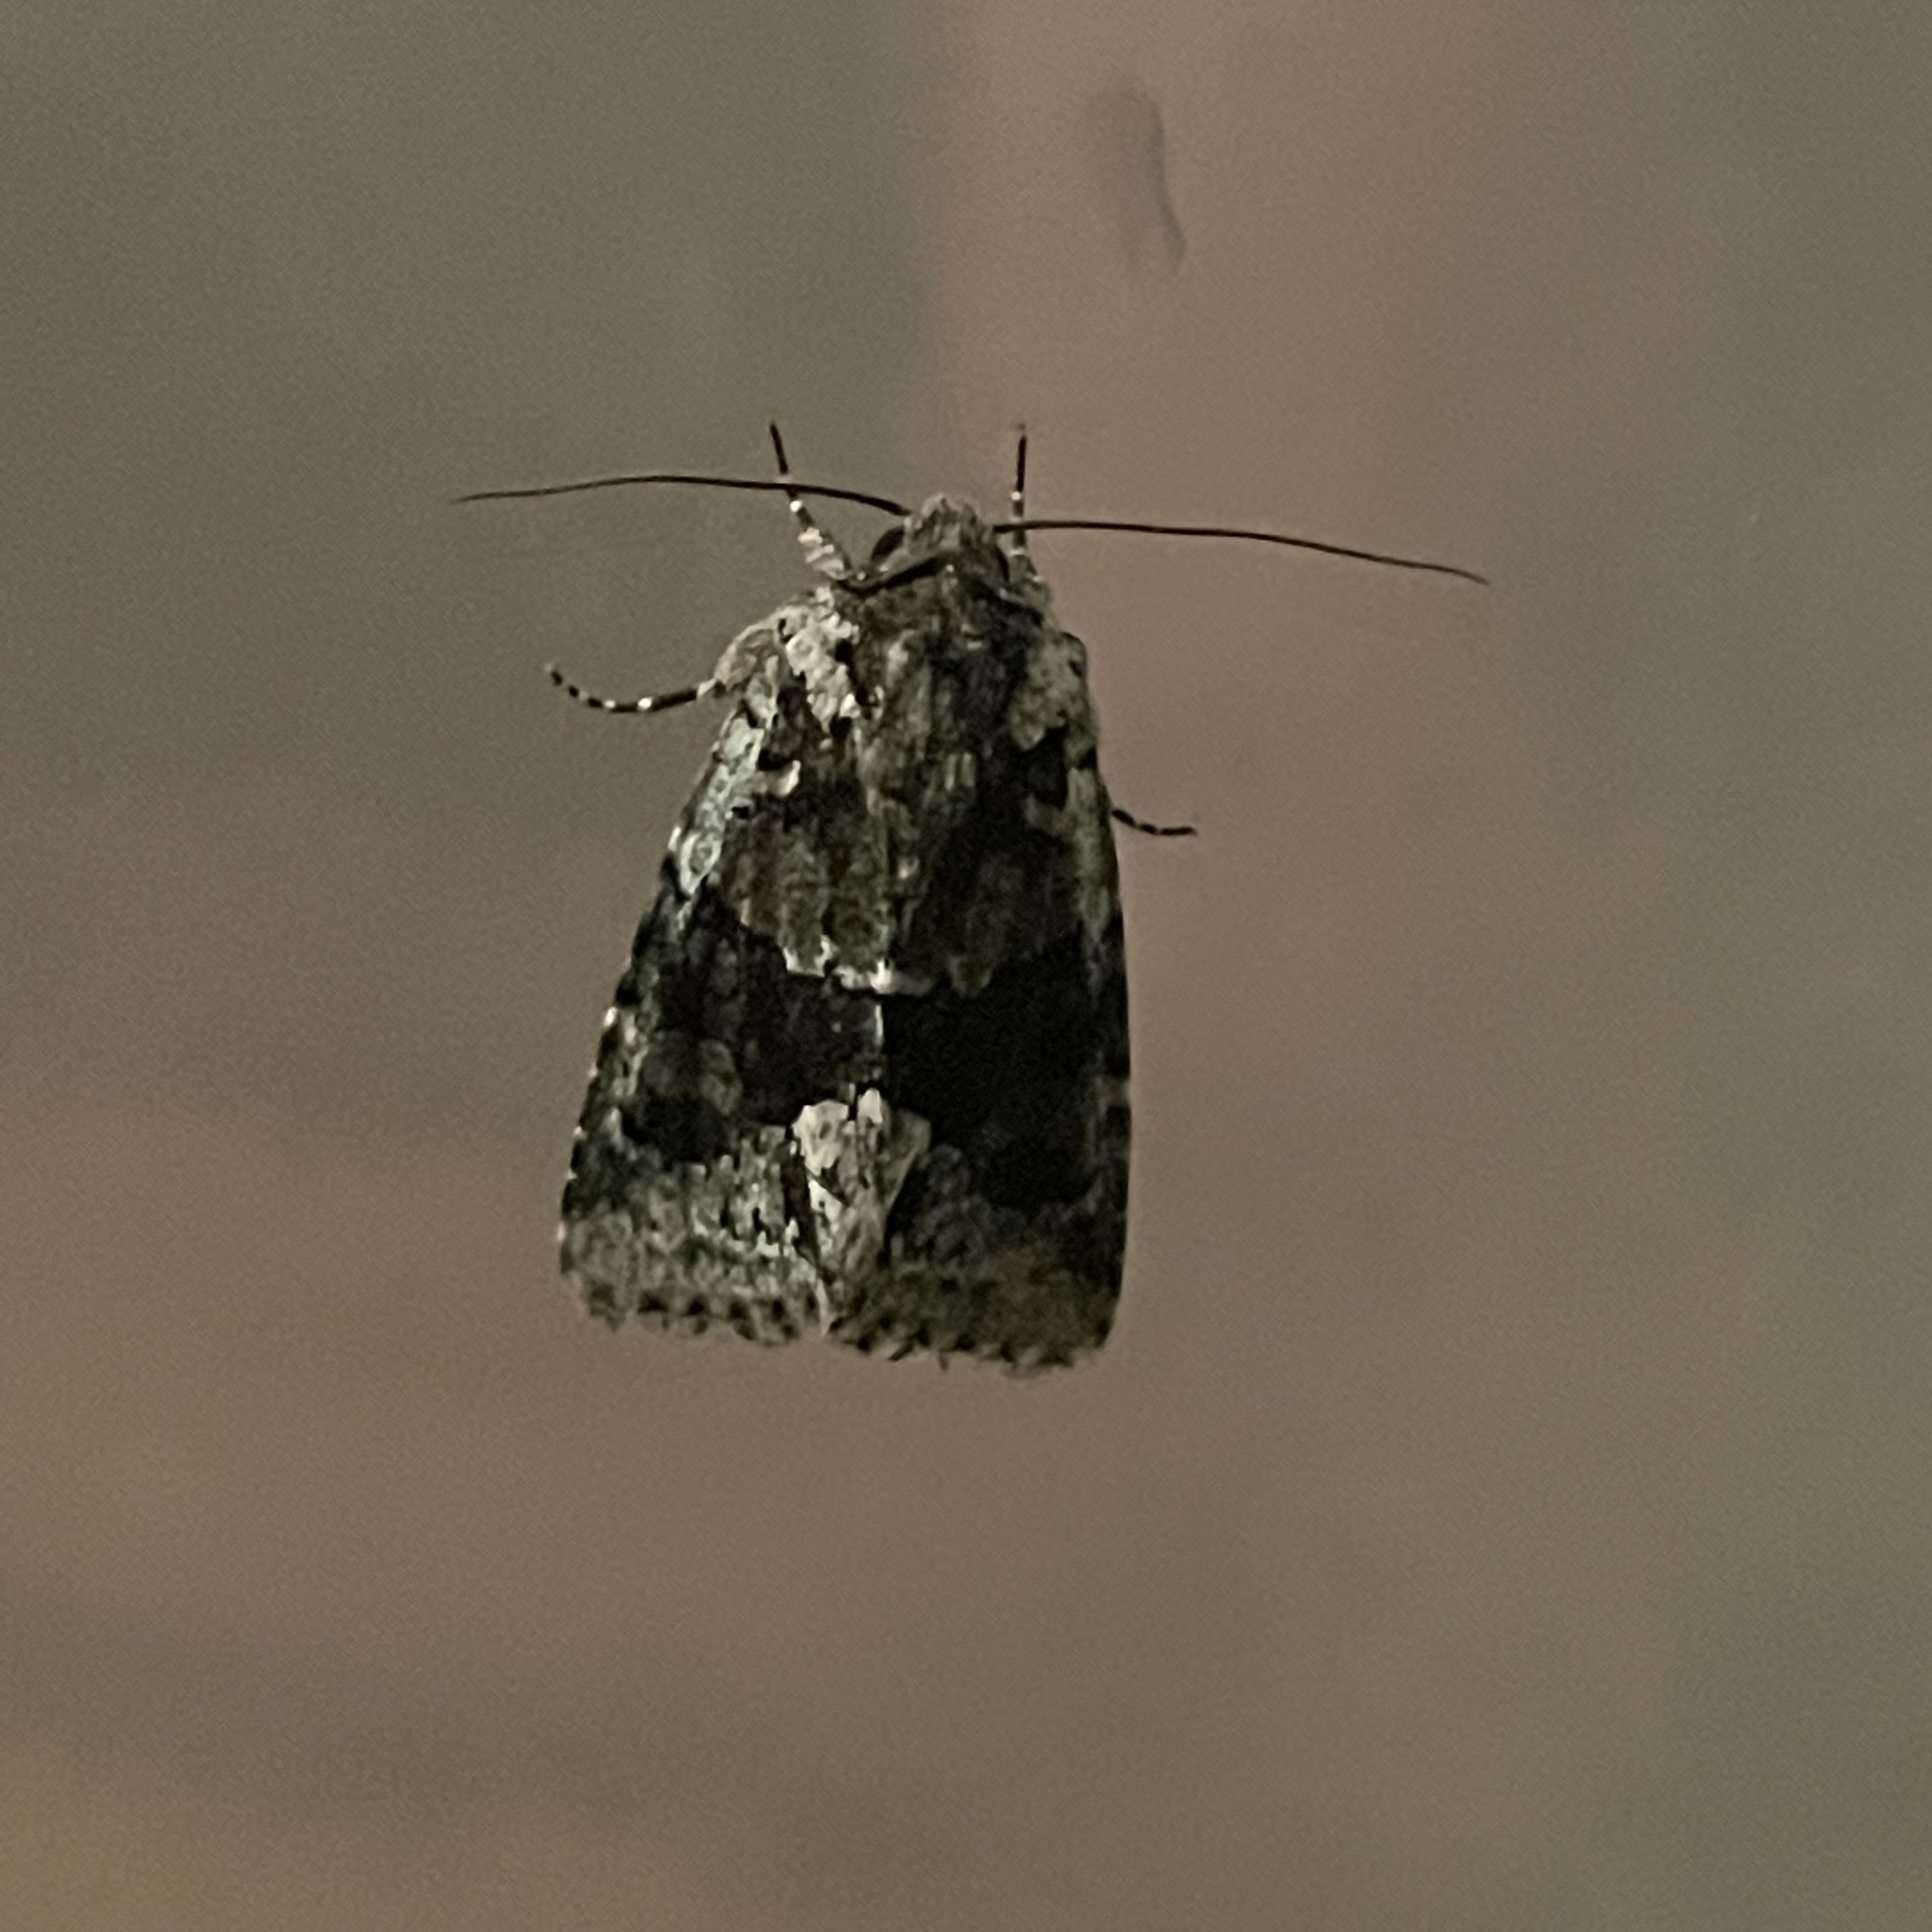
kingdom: Animalia
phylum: Arthropoda
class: Insecta
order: Lepidoptera
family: Noctuidae
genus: Lacinipolia
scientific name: Lacinipolia explicata
